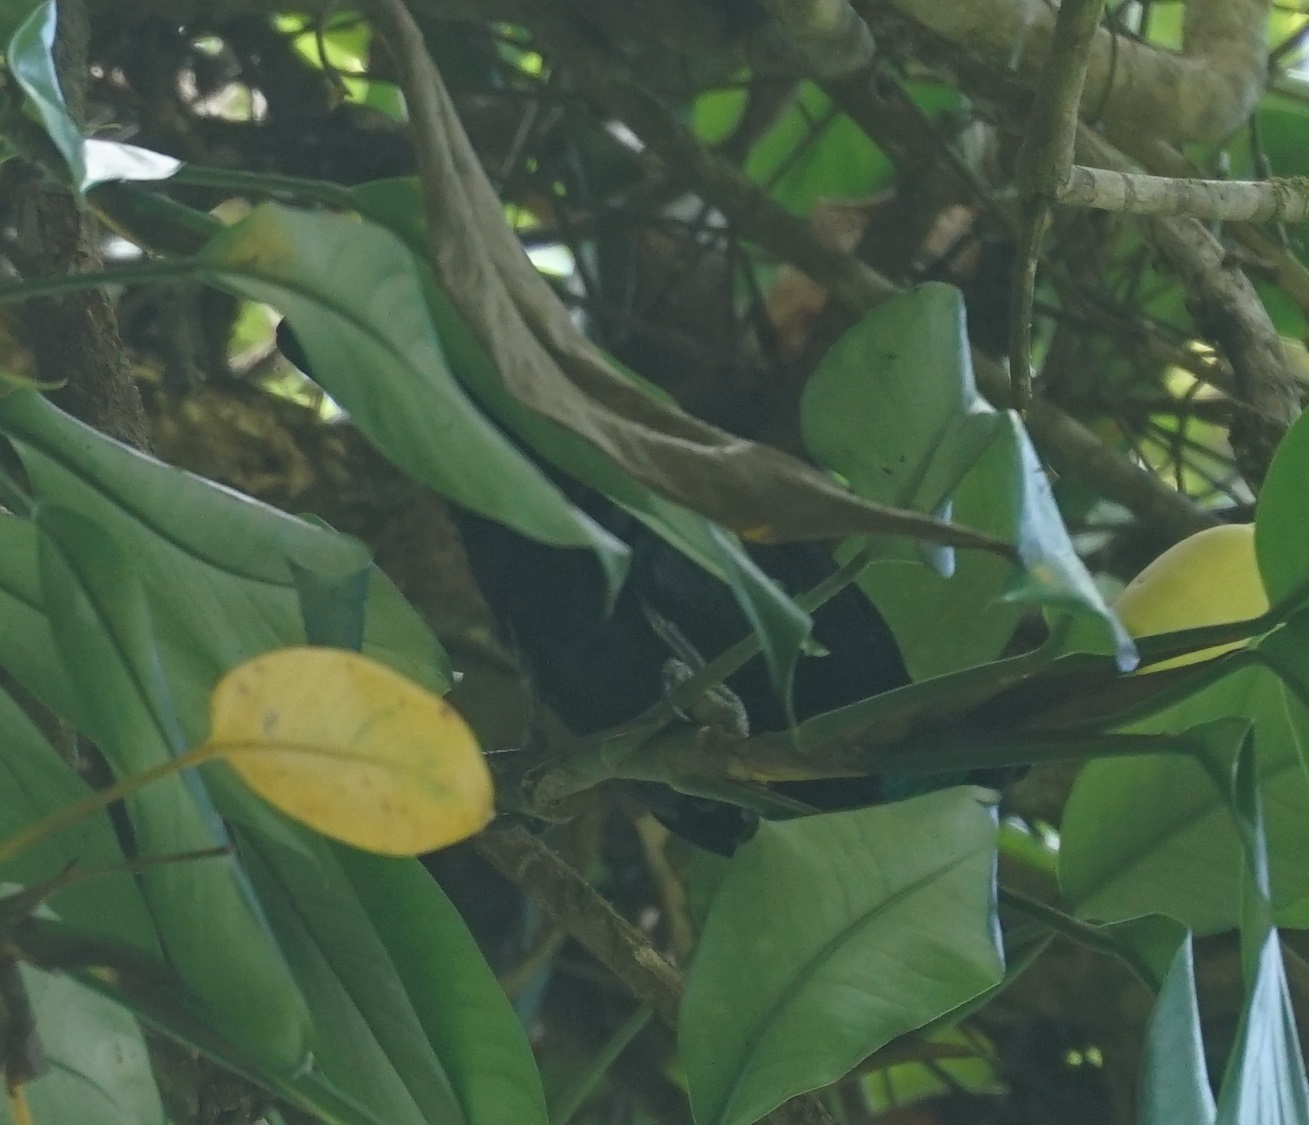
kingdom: Animalia
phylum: Chordata
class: Aves
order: Passeriformes
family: Paradisaeidae
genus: Ptiloris
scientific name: Ptiloris victoriae
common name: Victoria's riflebird
